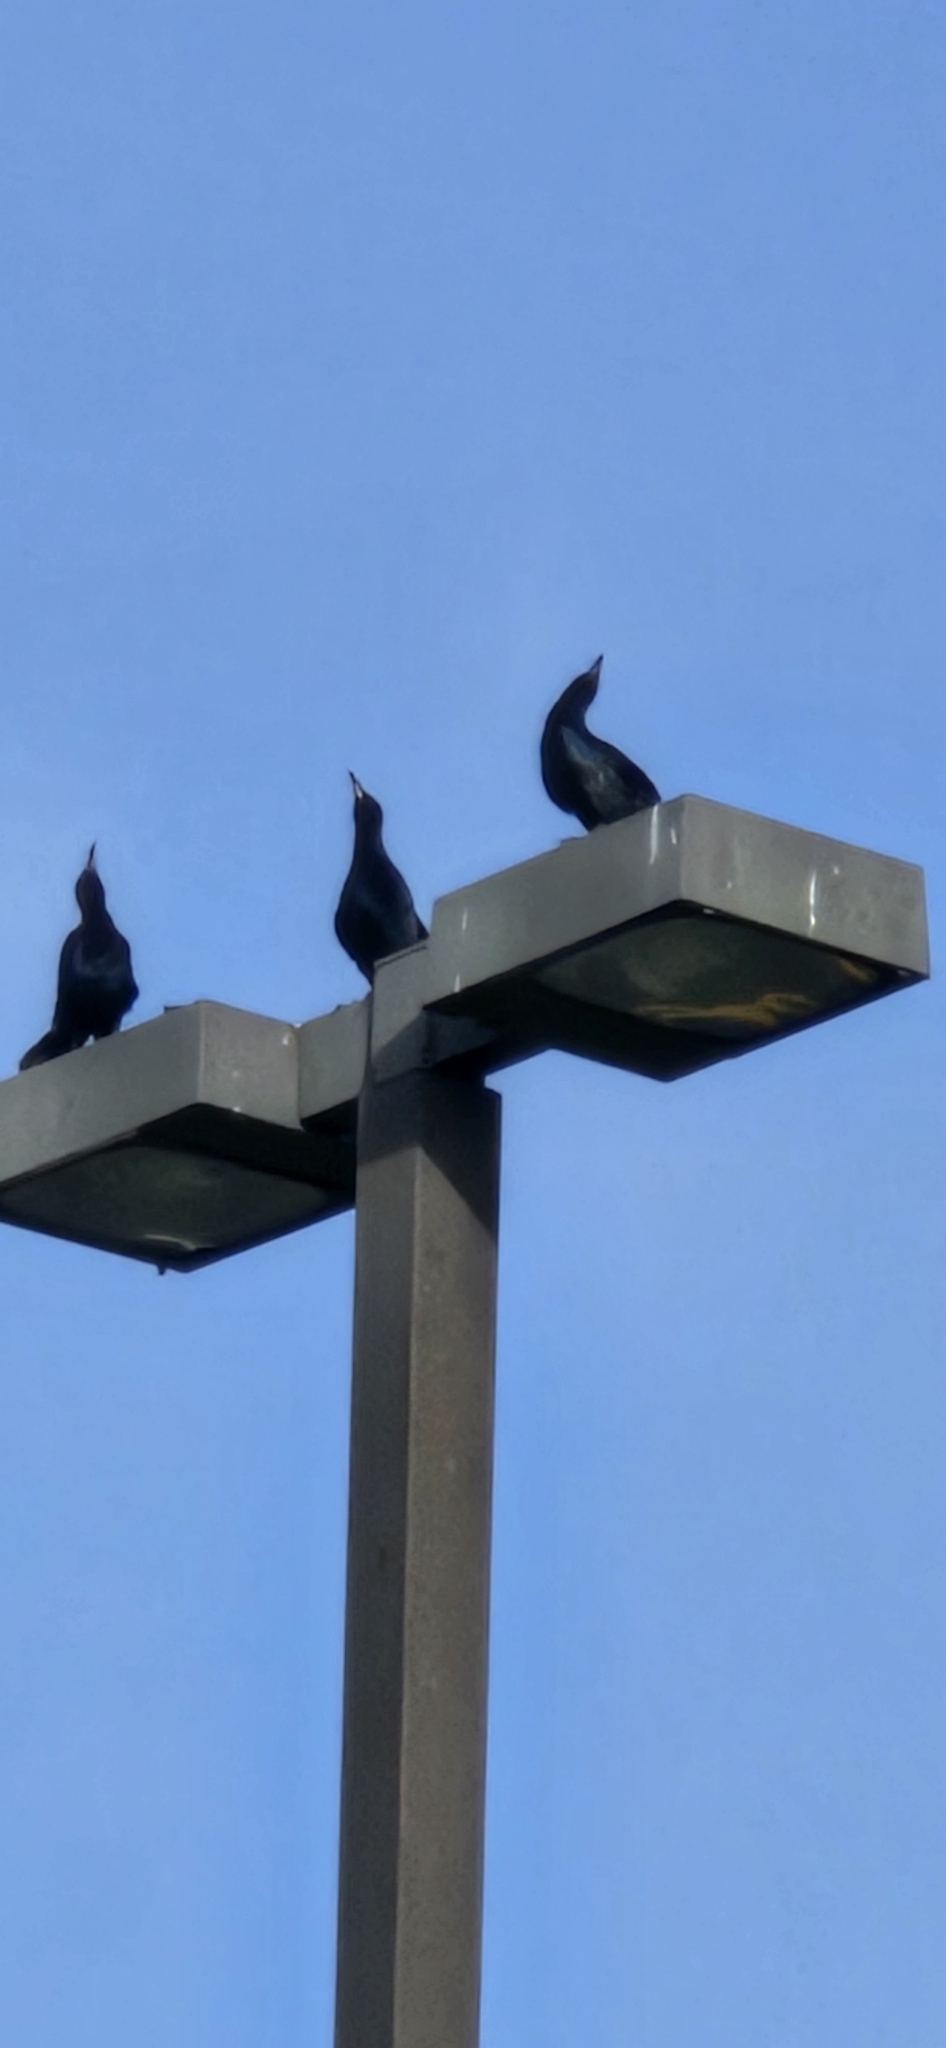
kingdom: Animalia
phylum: Chordata
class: Aves
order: Passeriformes
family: Icteridae
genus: Quiscalus
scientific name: Quiscalus mexicanus
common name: Great-tailed grackle
